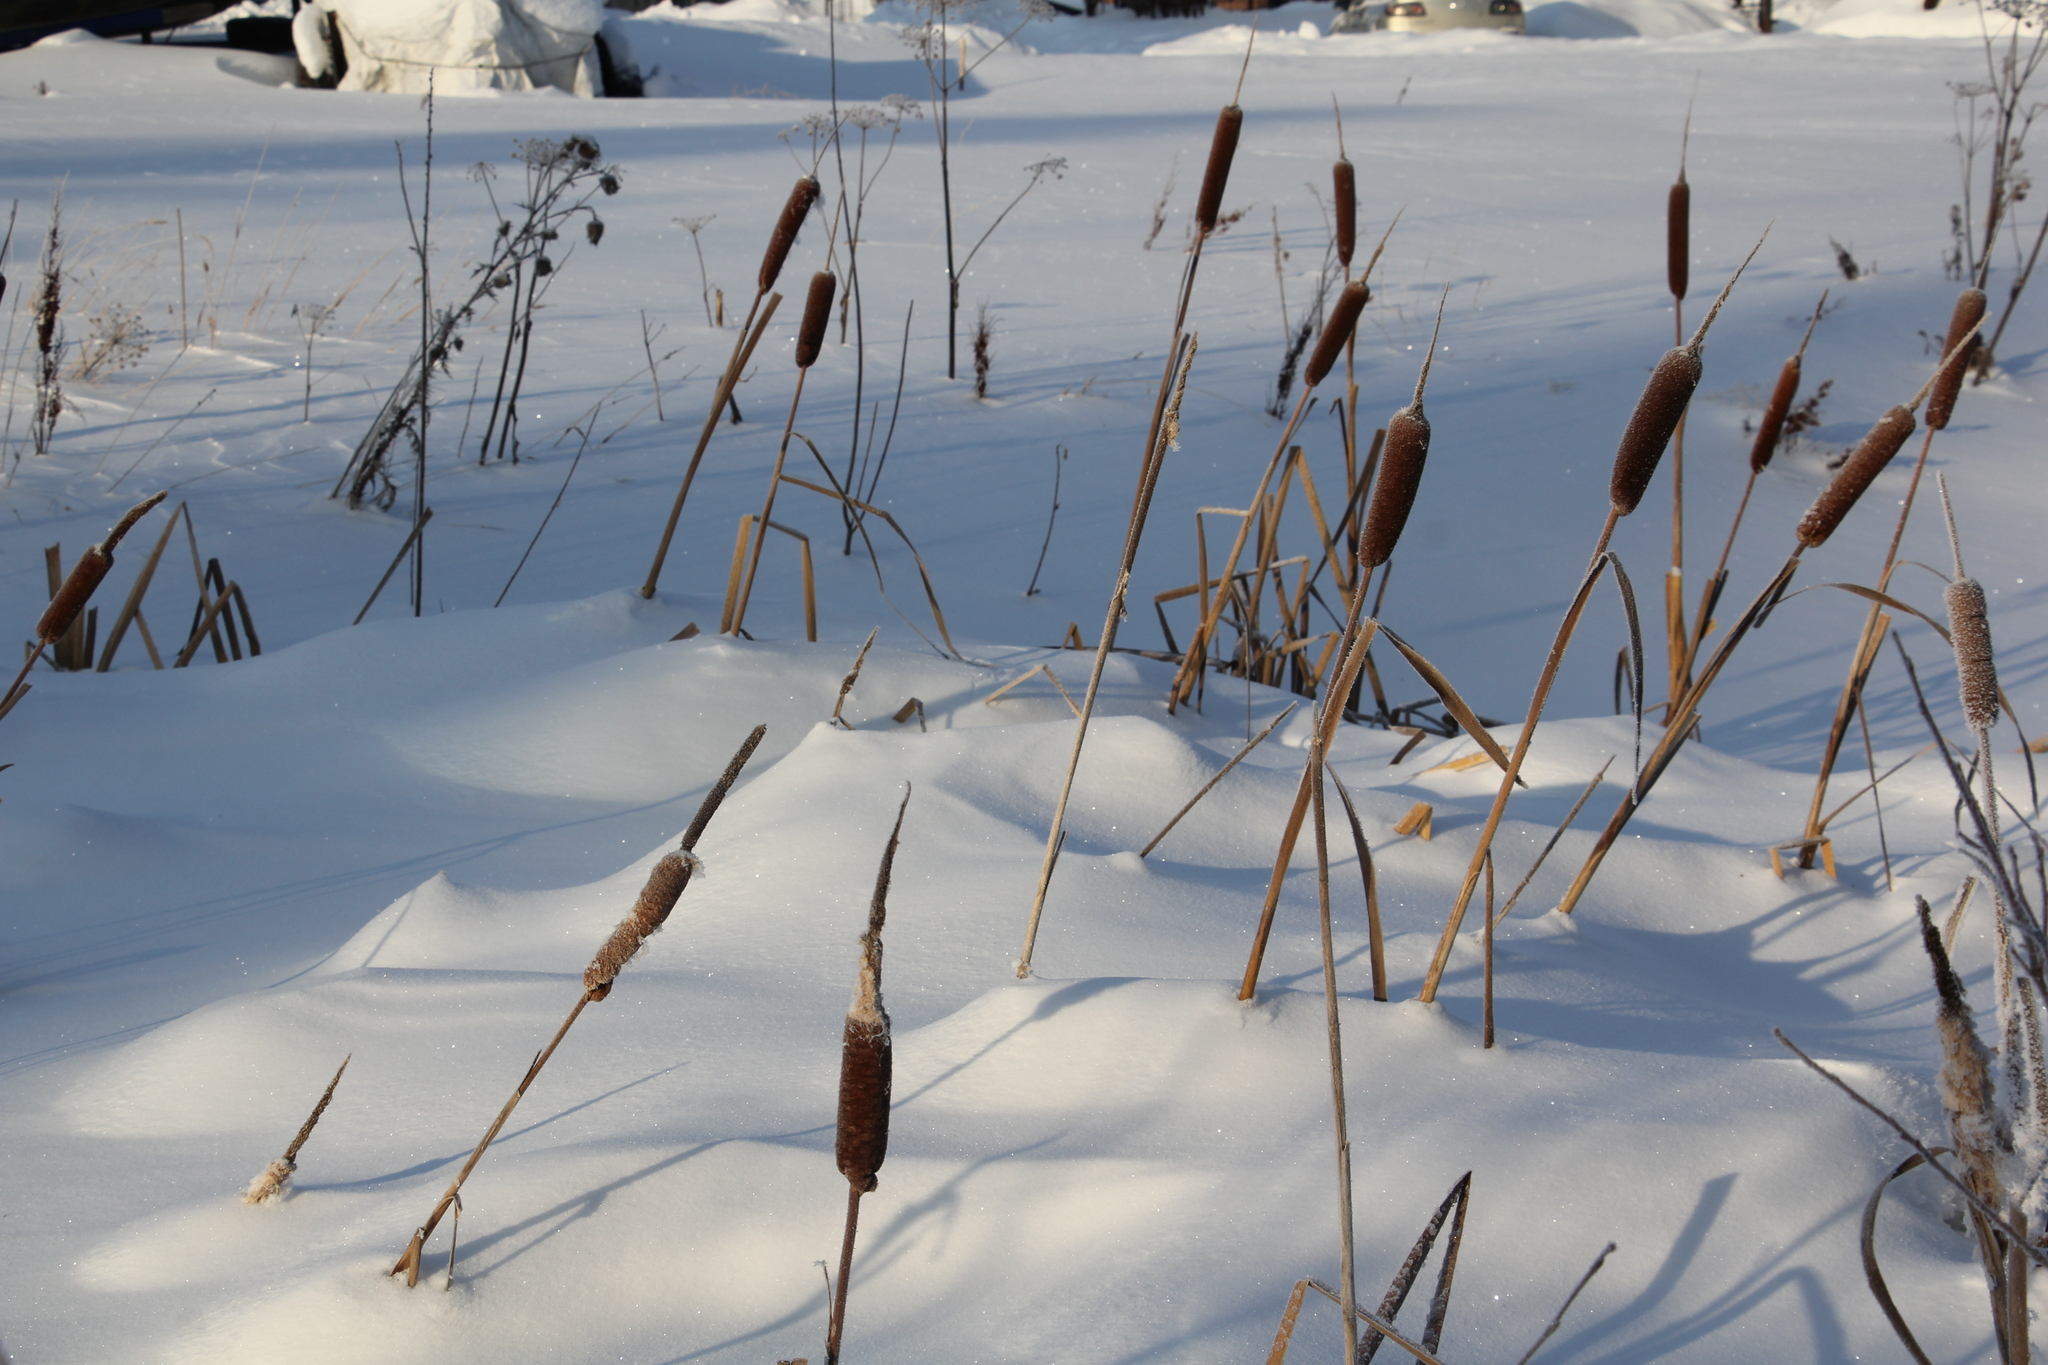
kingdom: Plantae
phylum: Tracheophyta
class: Liliopsida
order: Poales
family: Typhaceae
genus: Typha
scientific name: Typha latifolia
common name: Broadleaf cattail
